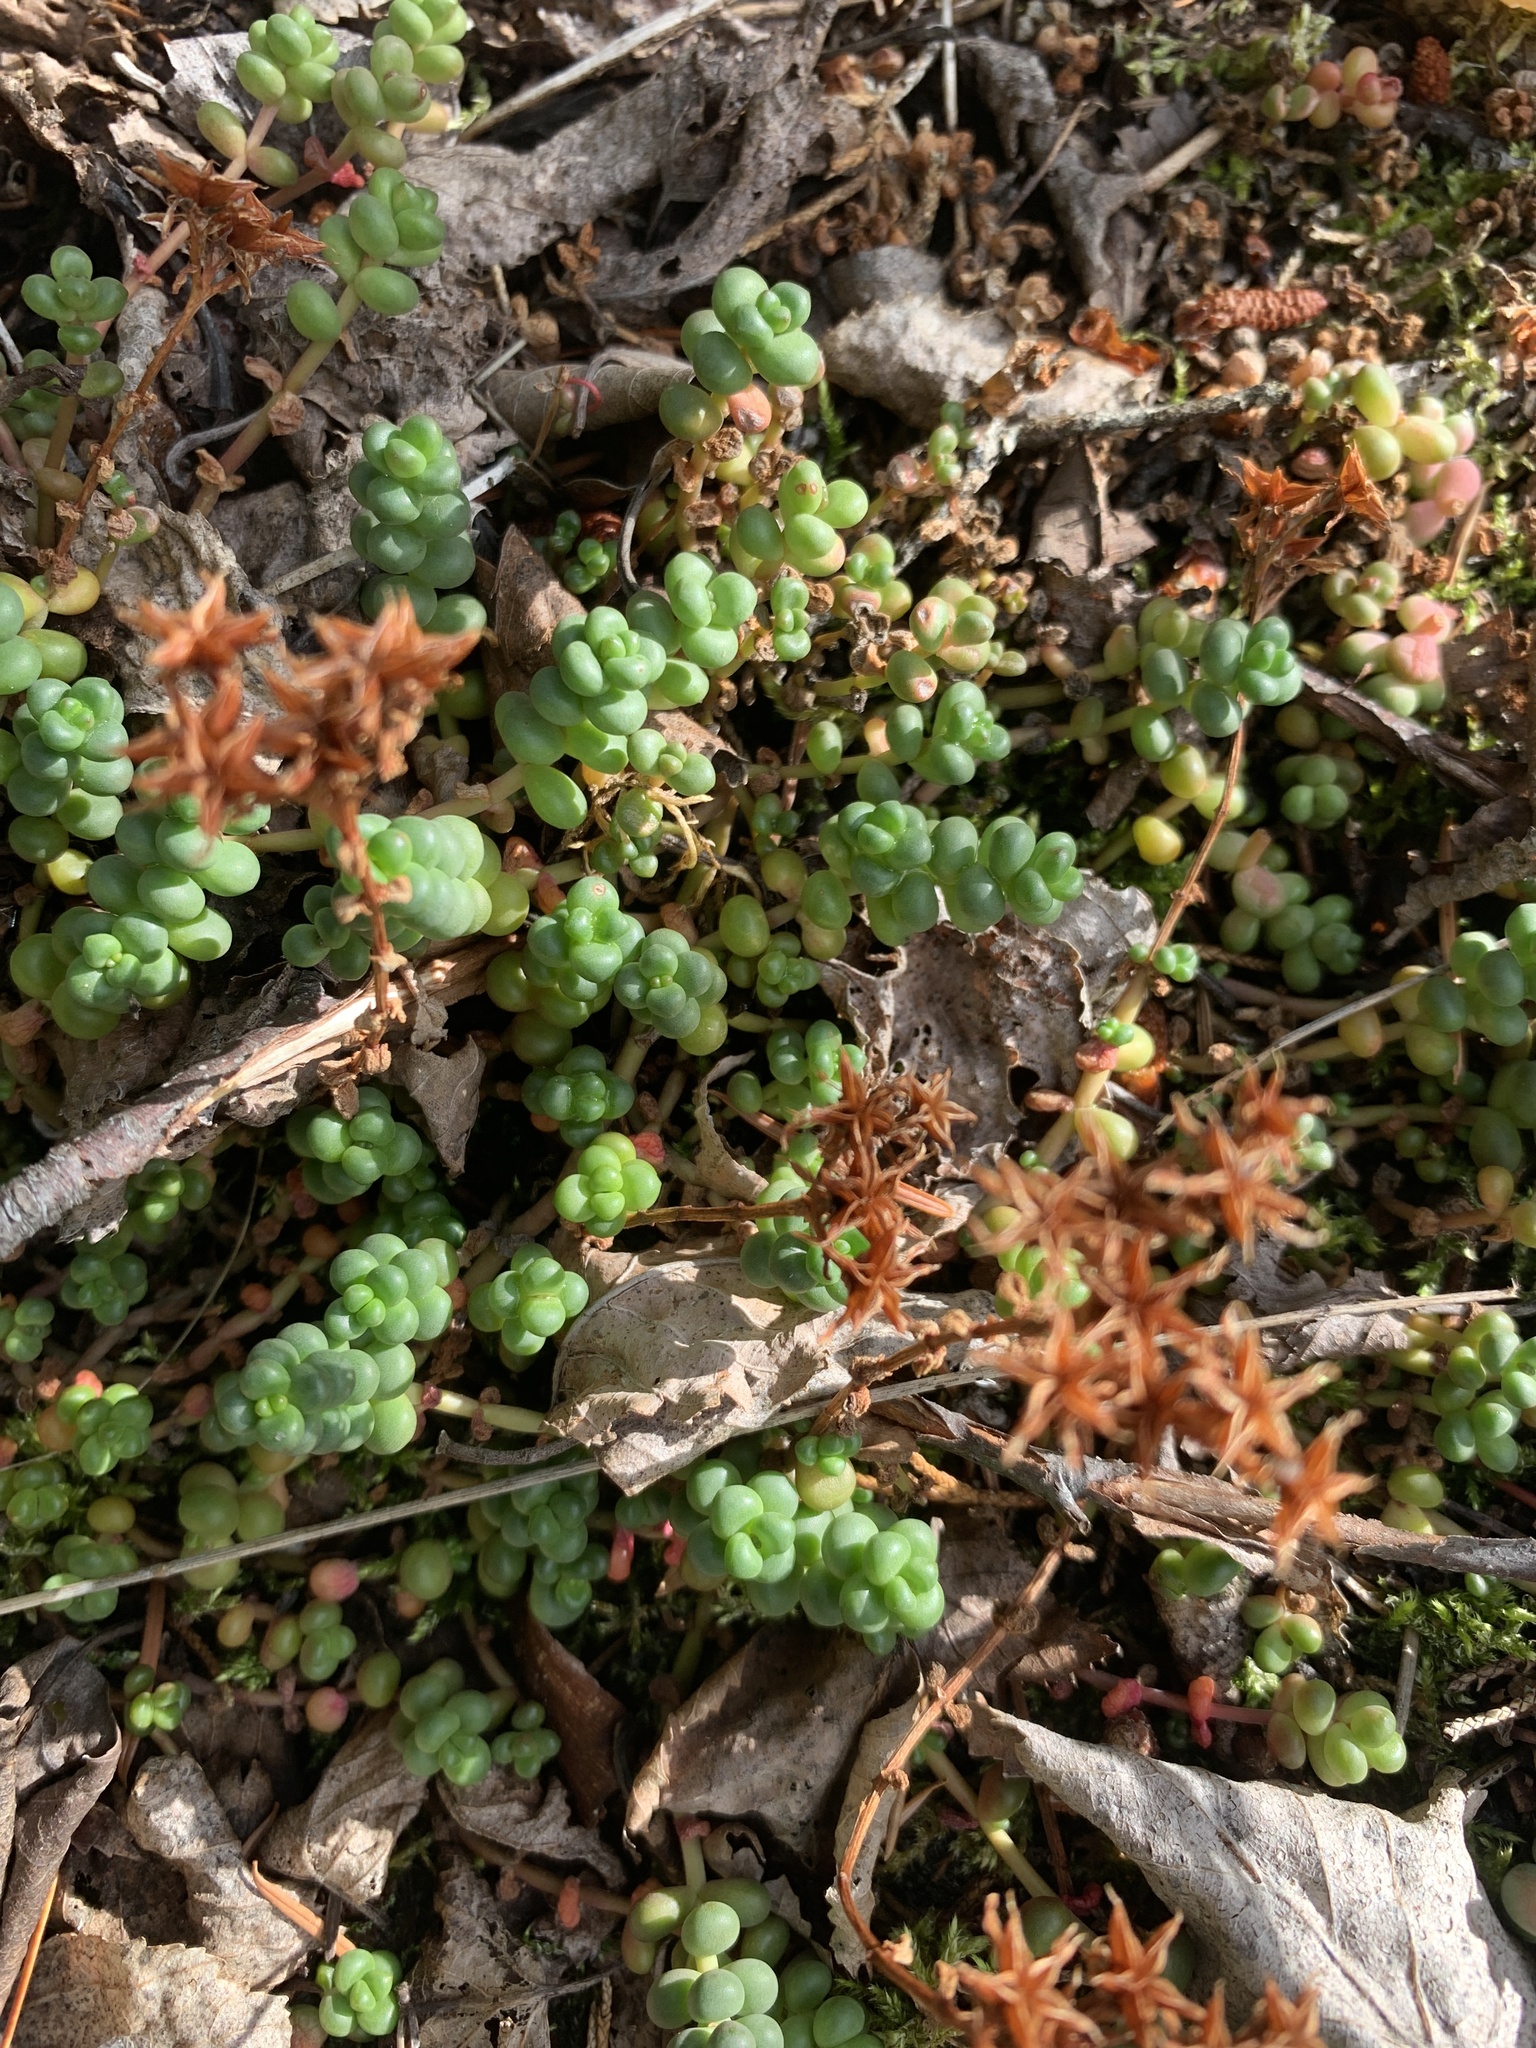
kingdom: Plantae
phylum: Tracheophyta
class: Magnoliopsida
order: Saxifragales
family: Crassulaceae
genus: Sedum
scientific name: Sedum divergens
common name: Cascade stonecrop
